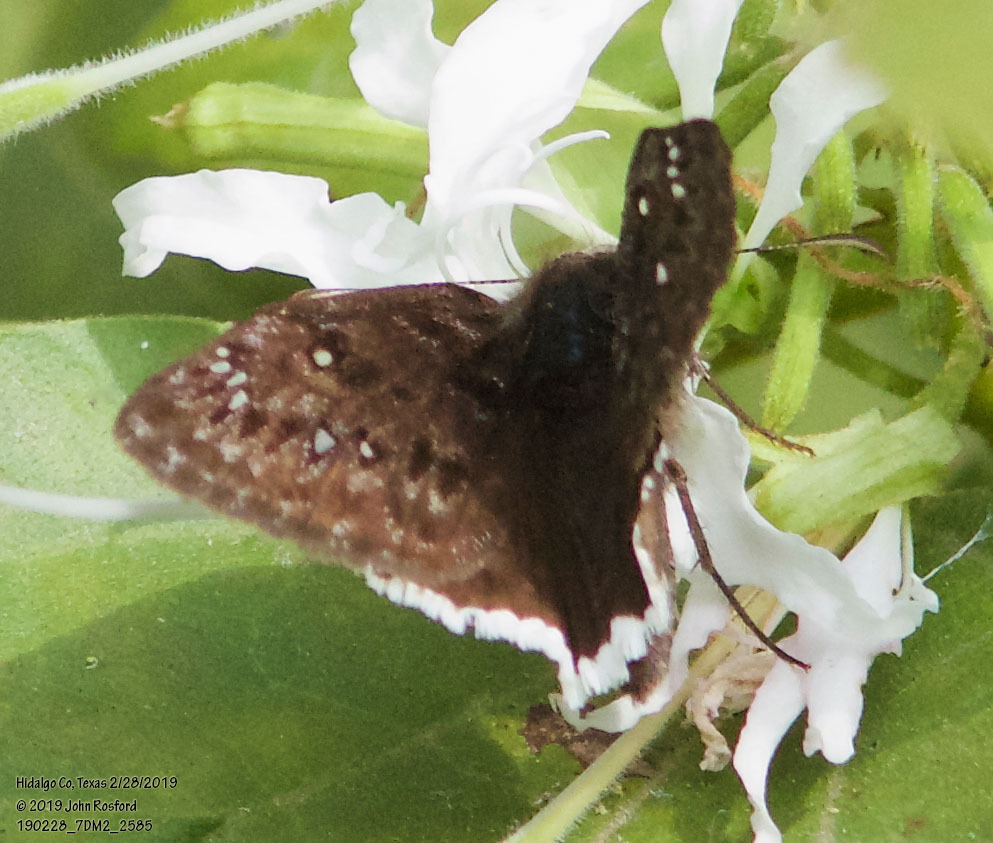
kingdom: Animalia
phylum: Arthropoda
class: Insecta
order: Lepidoptera
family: Hesperiidae
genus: Erynnis
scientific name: Erynnis tristis
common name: Mournful duskywing
